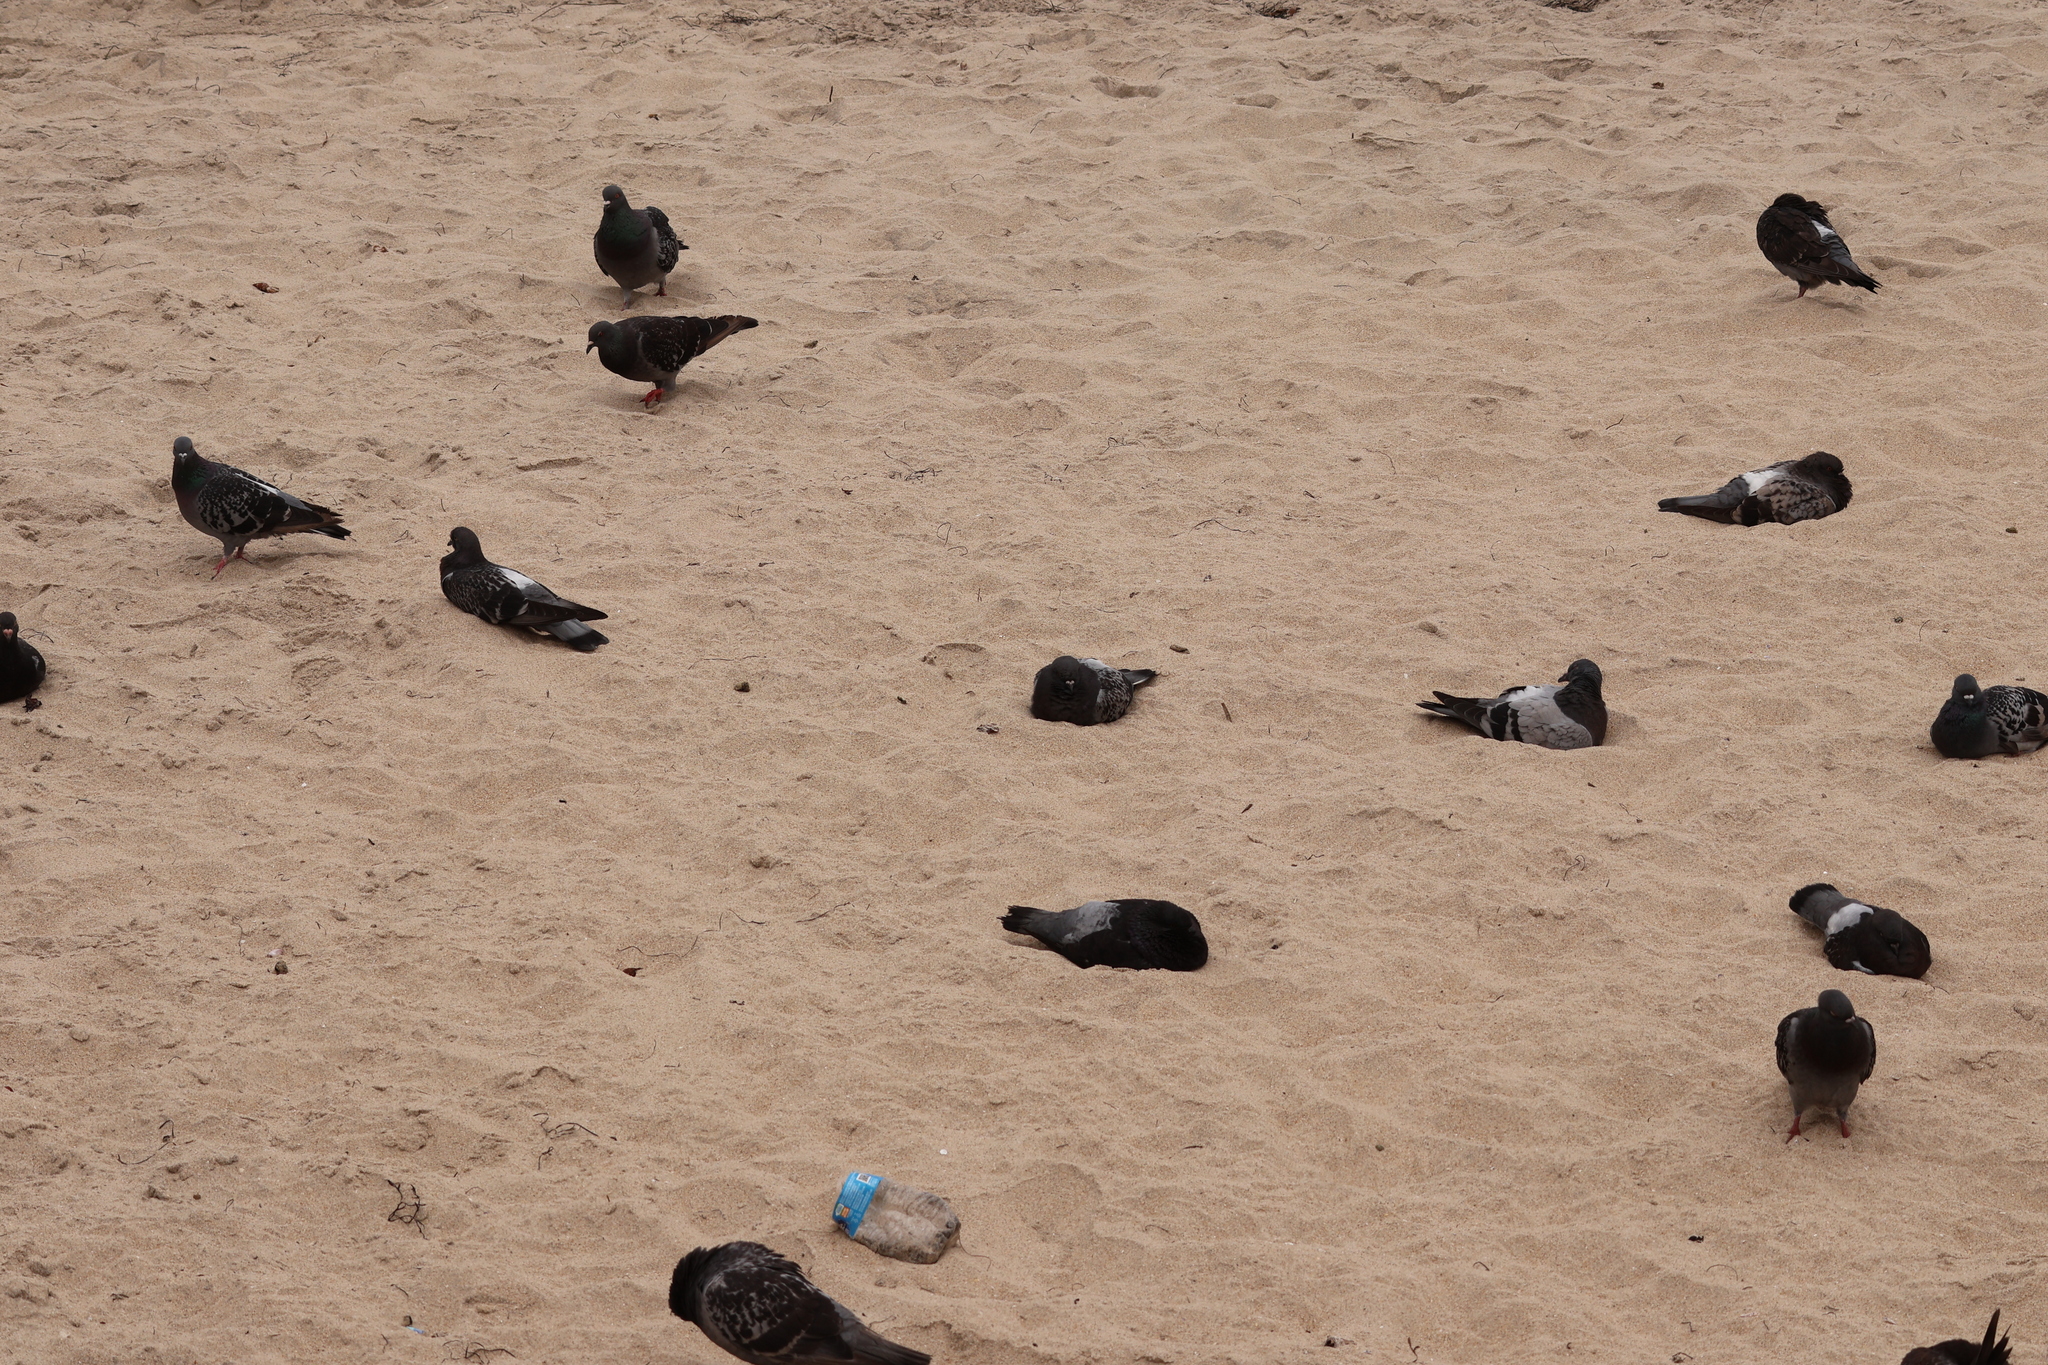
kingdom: Animalia
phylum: Chordata
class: Aves
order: Columbiformes
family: Columbidae
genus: Columba
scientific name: Columba livia
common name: Rock pigeon
